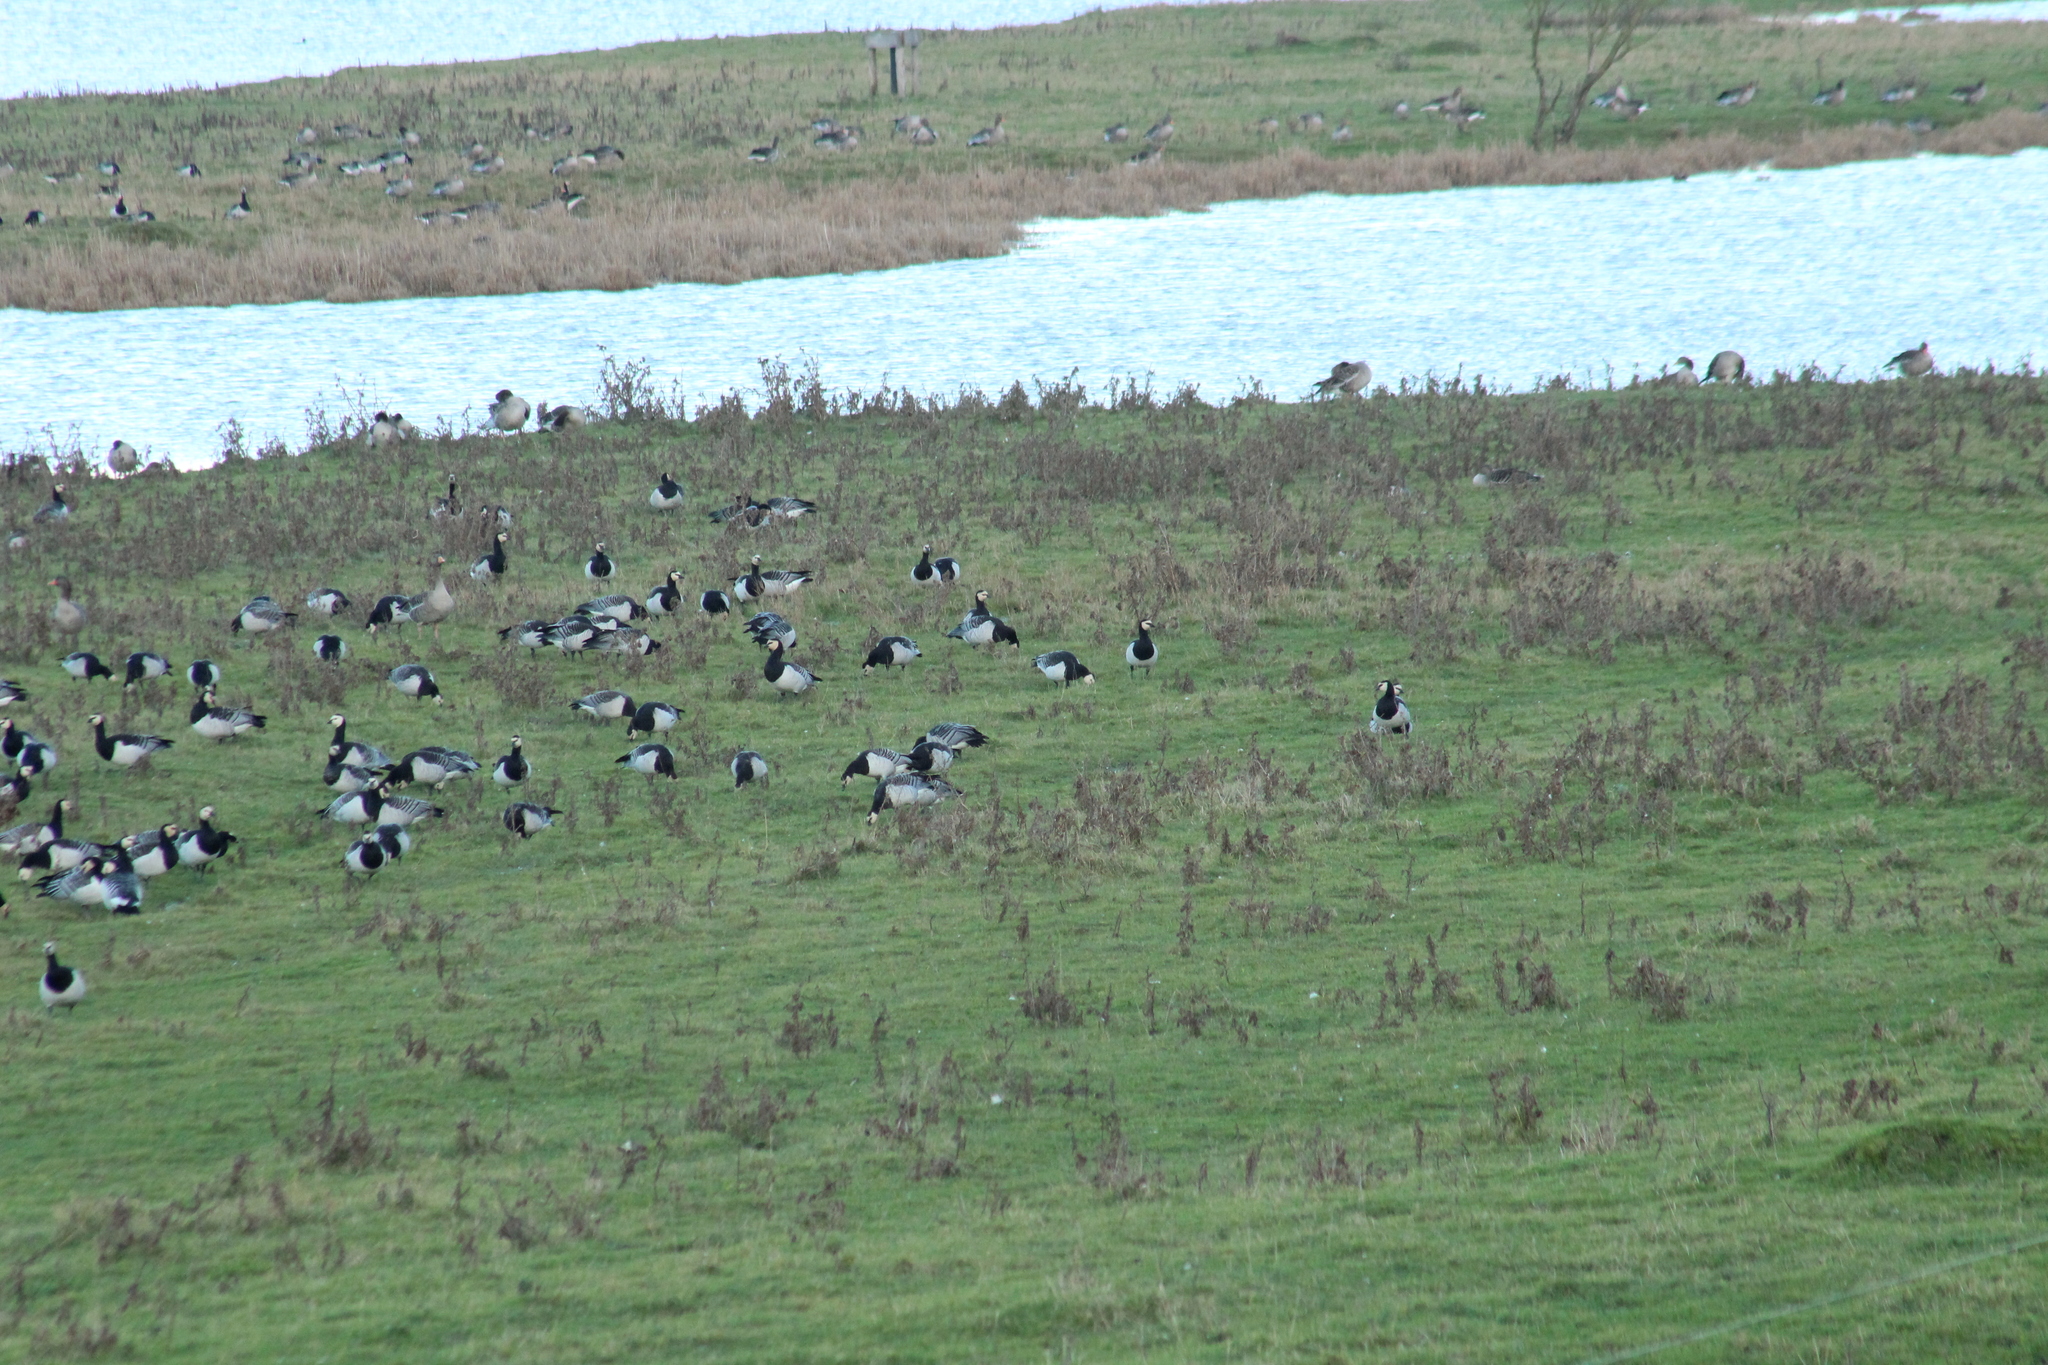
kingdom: Animalia
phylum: Chordata
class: Aves
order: Anseriformes
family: Anatidae
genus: Branta
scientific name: Branta leucopsis
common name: Barnacle goose
